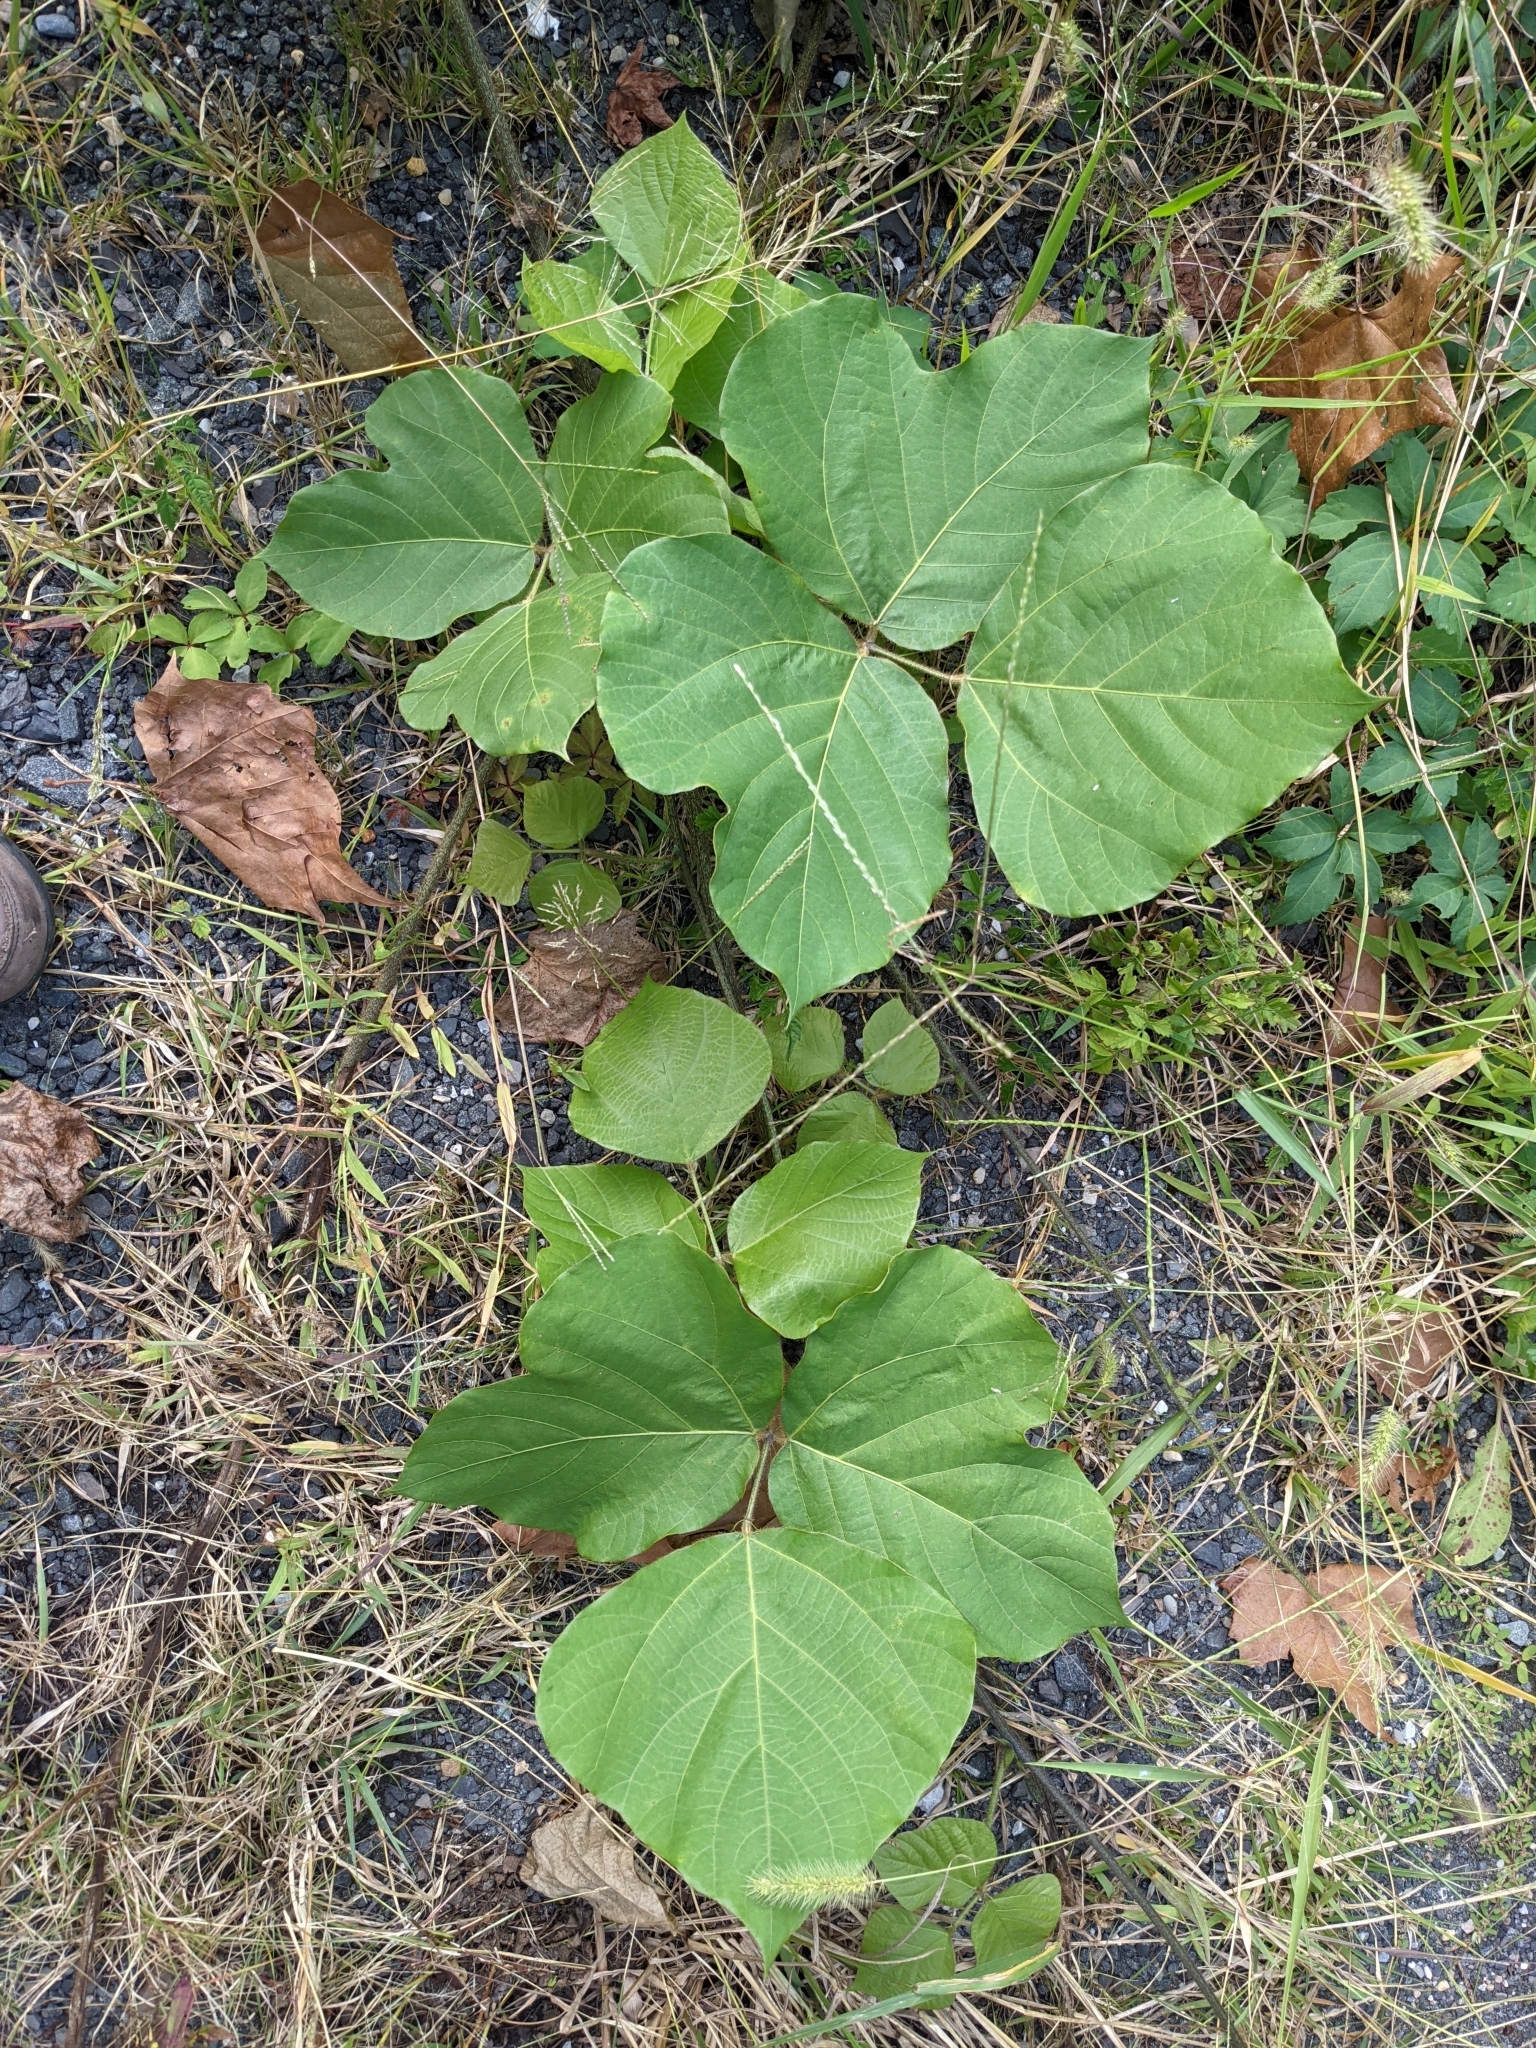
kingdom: Plantae
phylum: Tracheophyta
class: Magnoliopsida
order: Fabales
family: Fabaceae
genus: Pueraria
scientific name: Pueraria montana
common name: Kudzu
